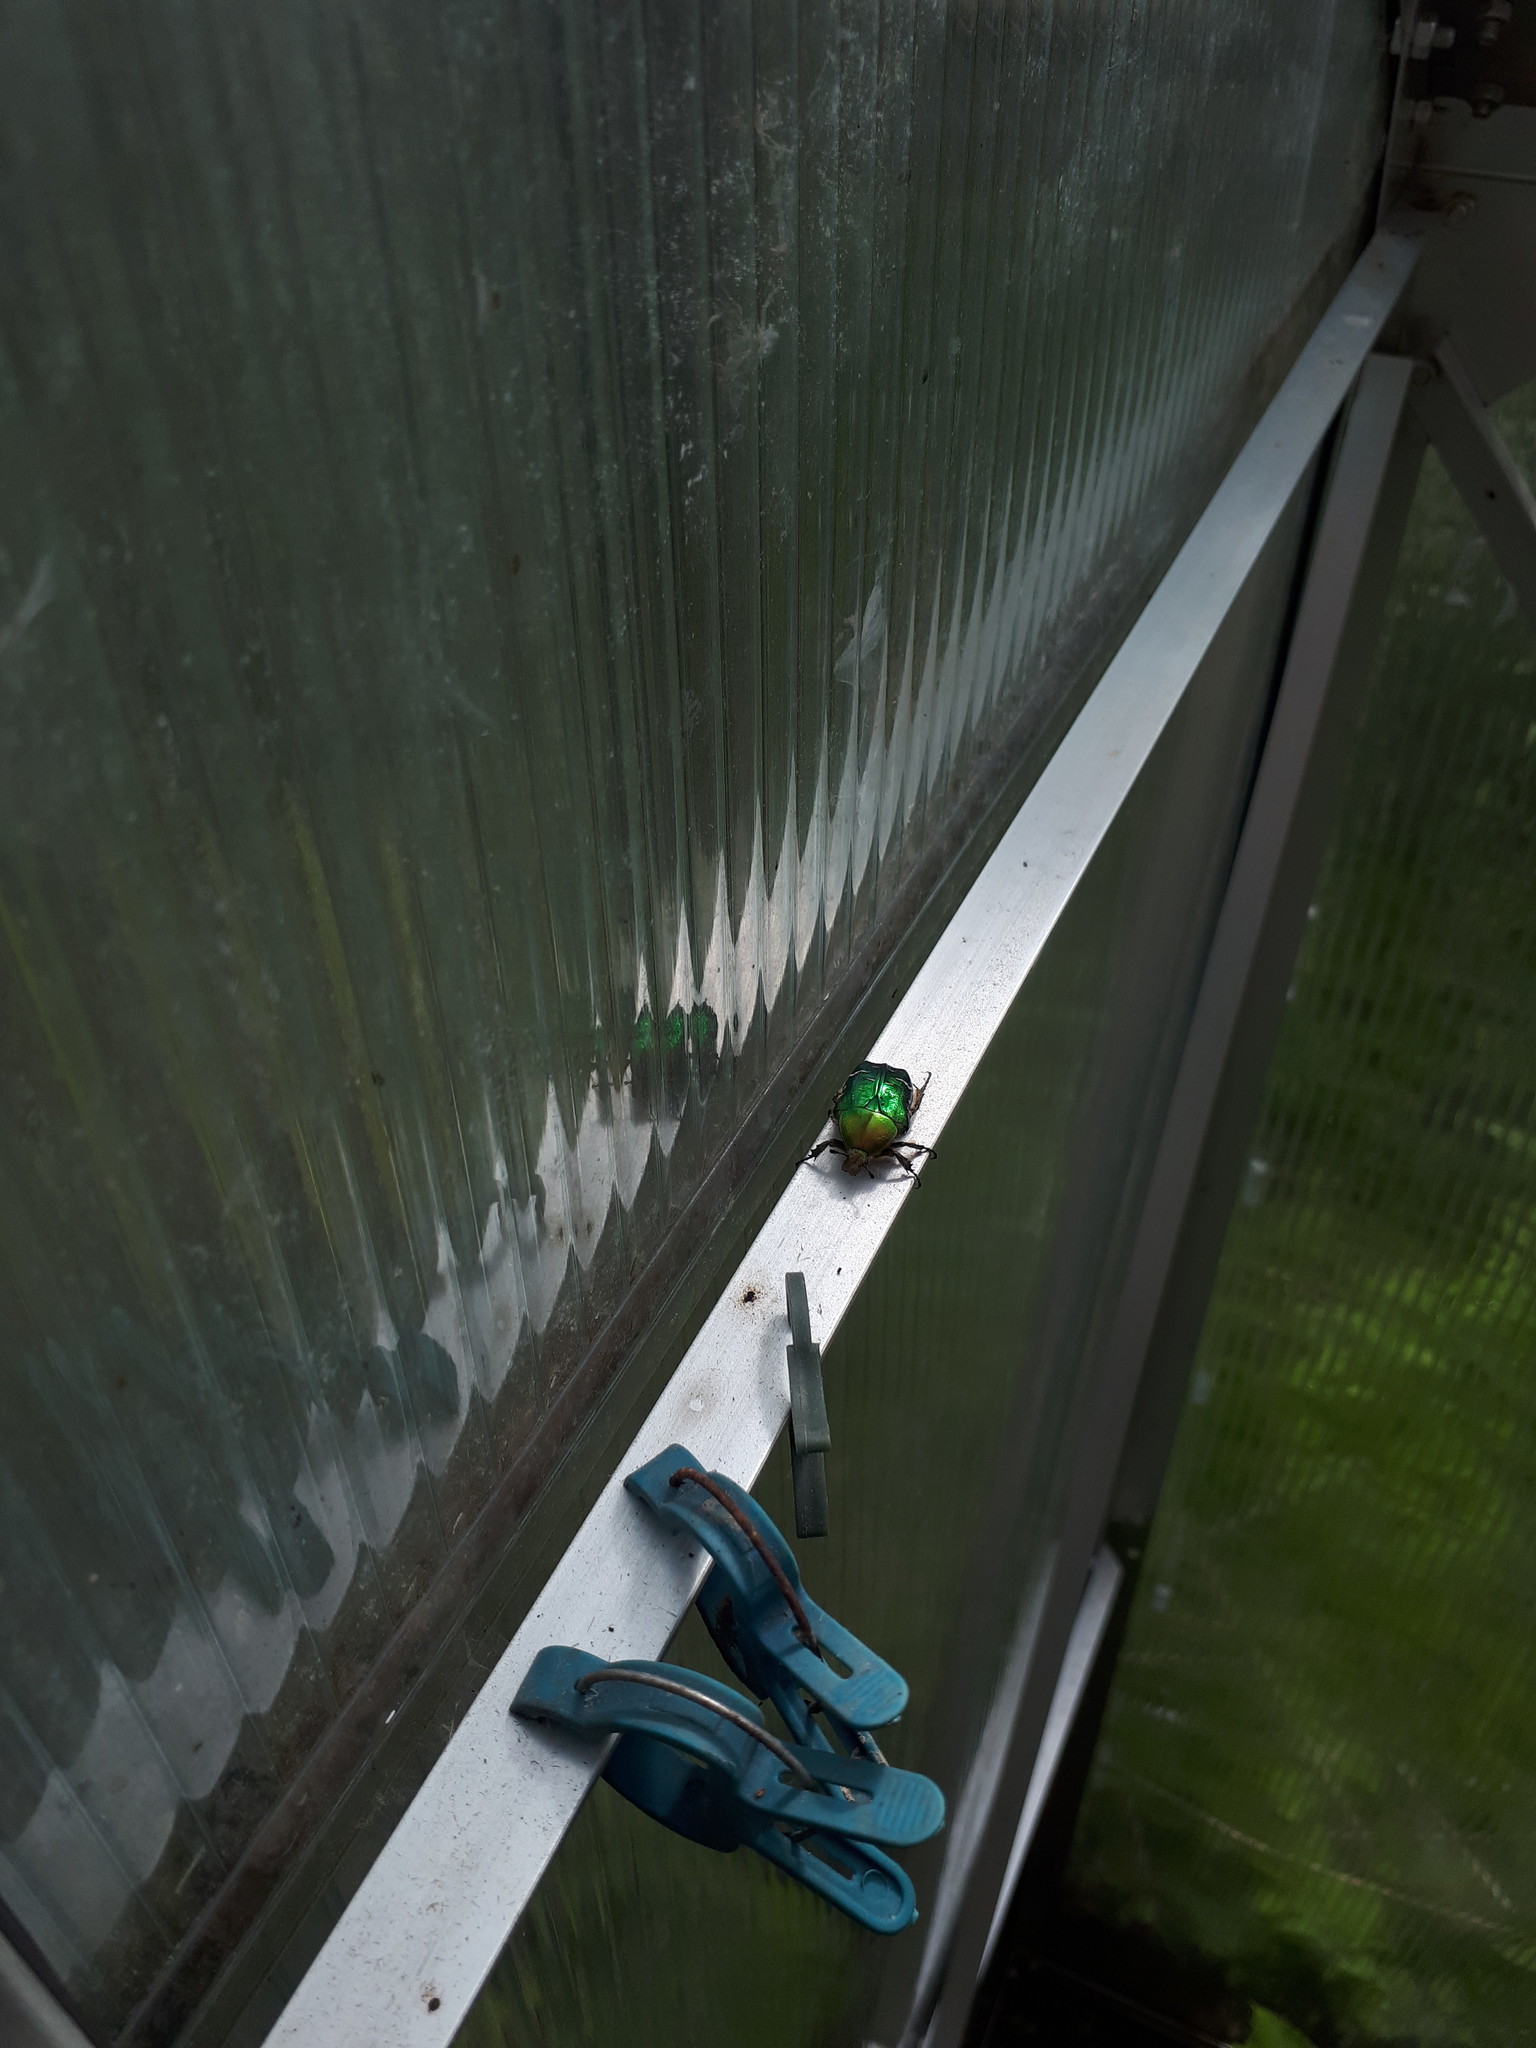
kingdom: Animalia
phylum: Arthropoda
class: Insecta
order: Coleoptera
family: Scarabaeidae
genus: Cetonia
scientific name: Cetonia aurata
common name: Rose chafer
